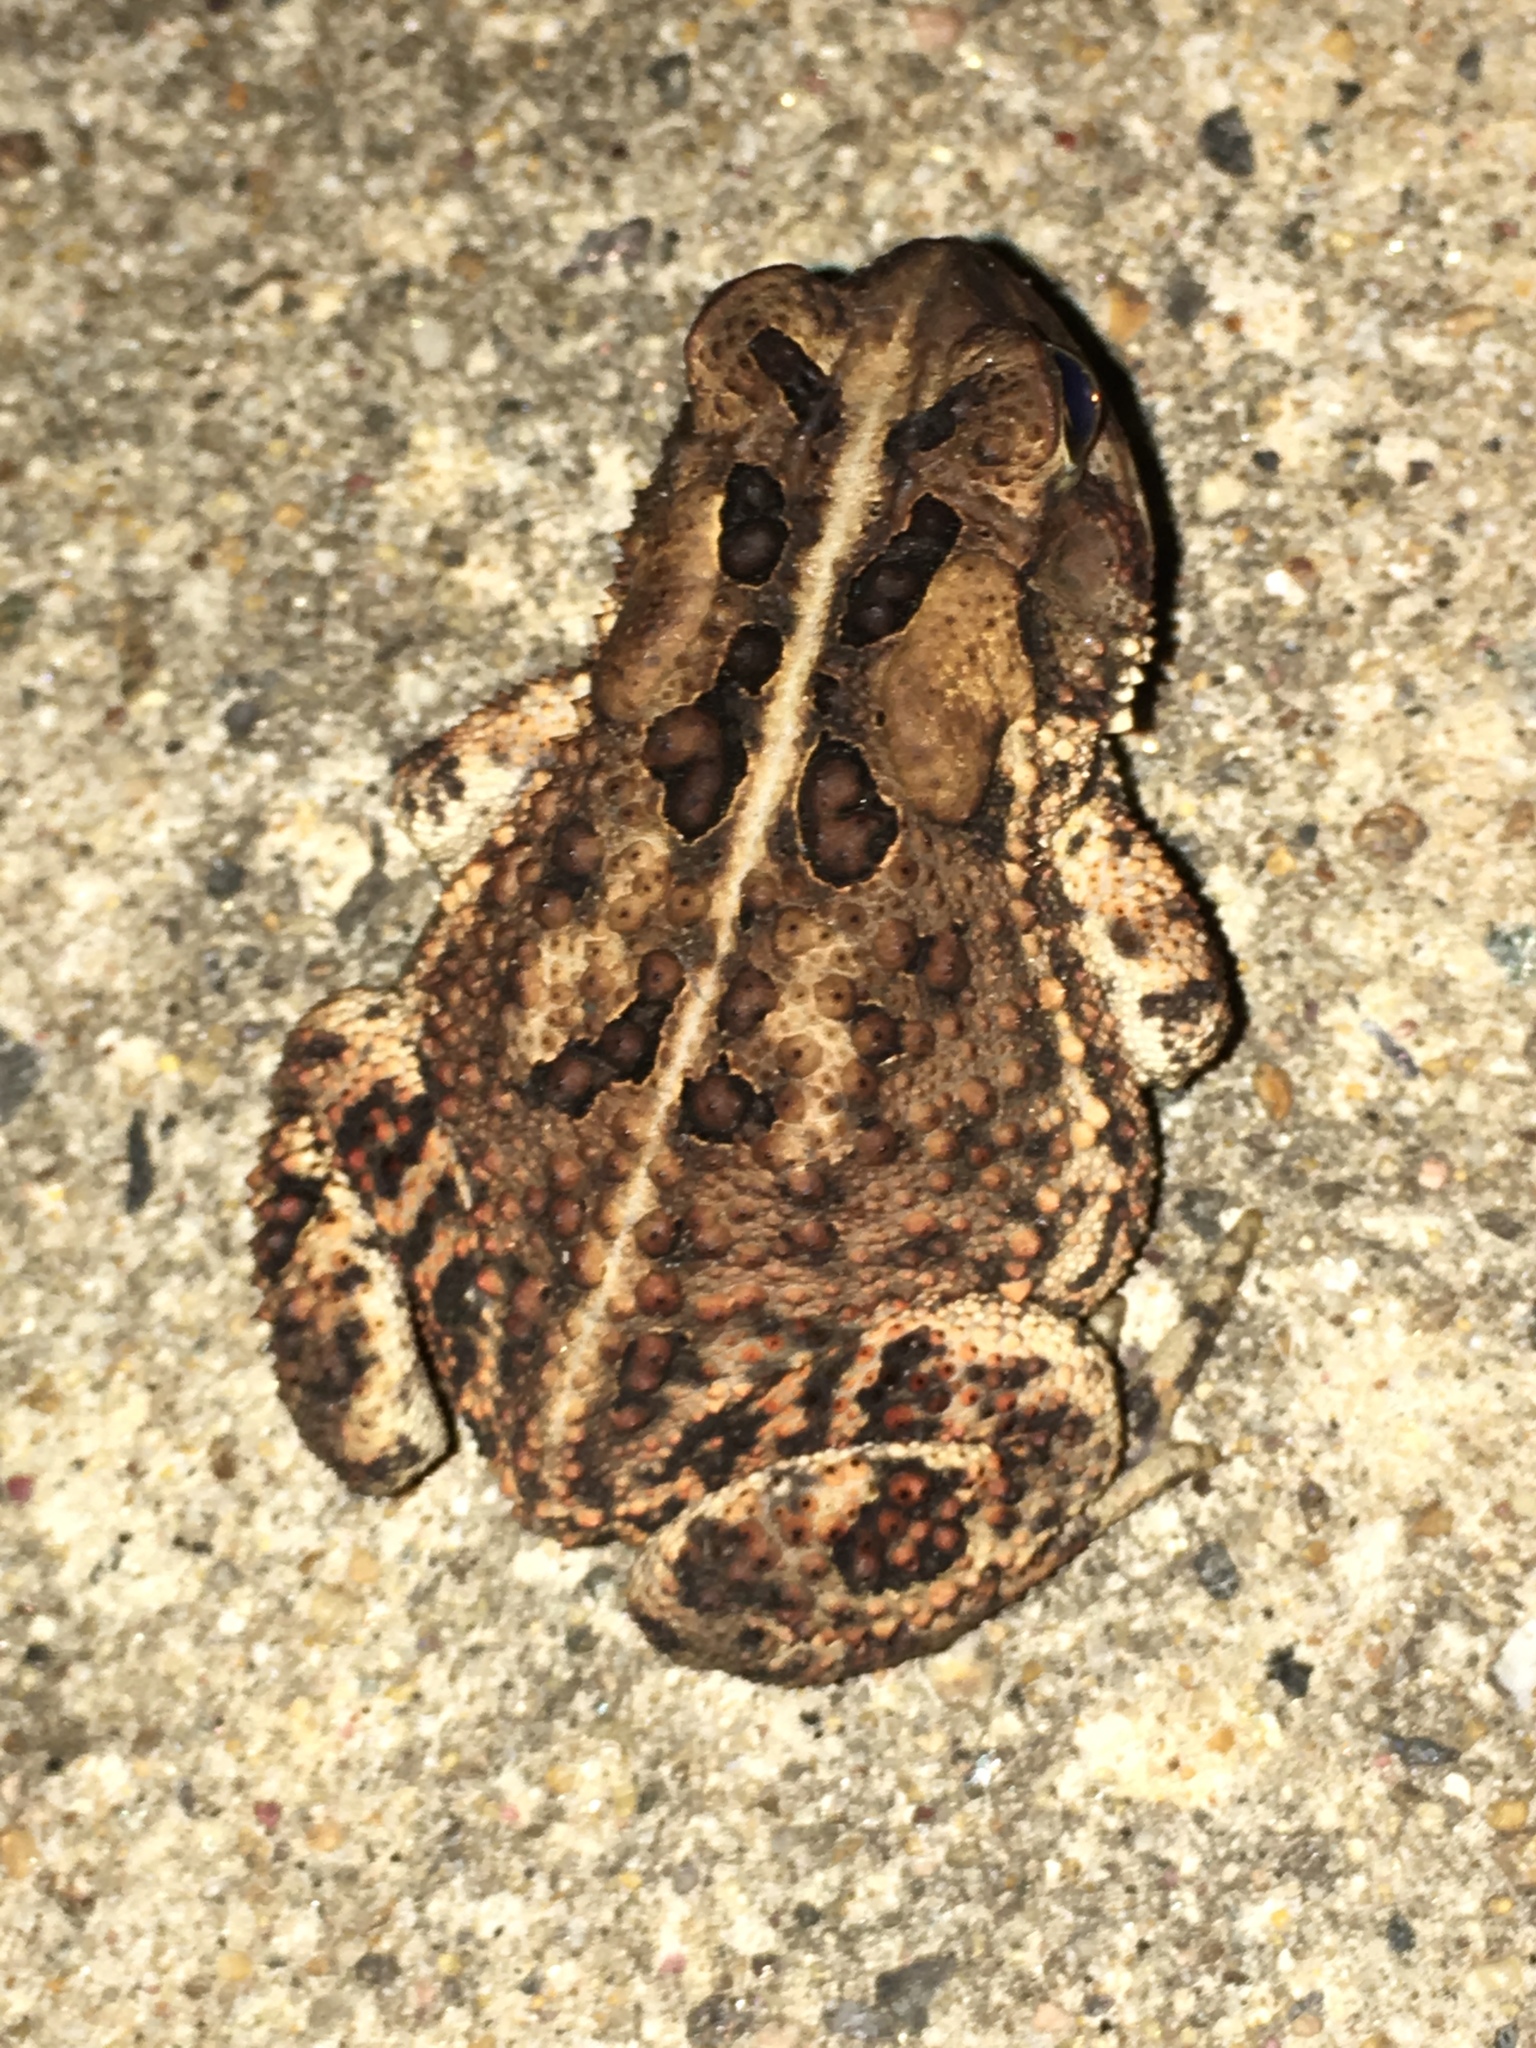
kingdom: Animalia
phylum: Chordata
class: Amphibia
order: Anura
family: Bufonidae
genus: Anaxyrus
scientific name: Anaxyrus americanus
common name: American toad
